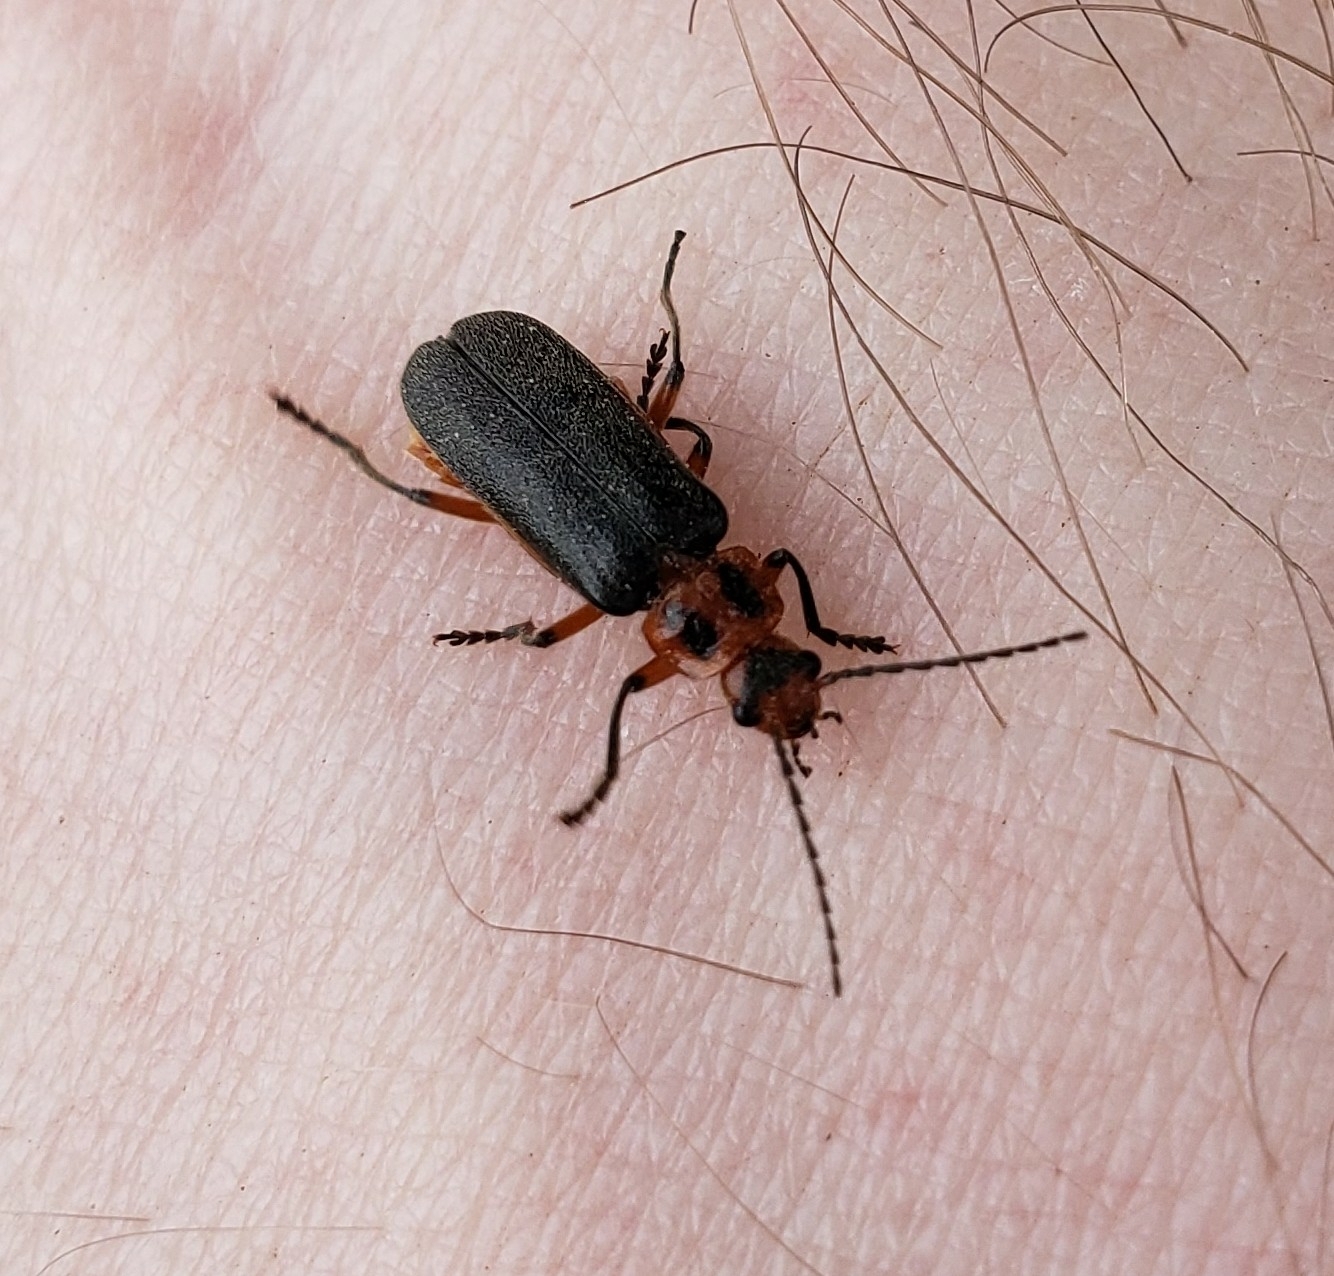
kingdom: Animalia
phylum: Arthropoda
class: Insecta
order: Coleoptera
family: Cantharidae
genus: Atalantycha
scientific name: Atalantycha bilineata
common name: Two-lined leatherwing
